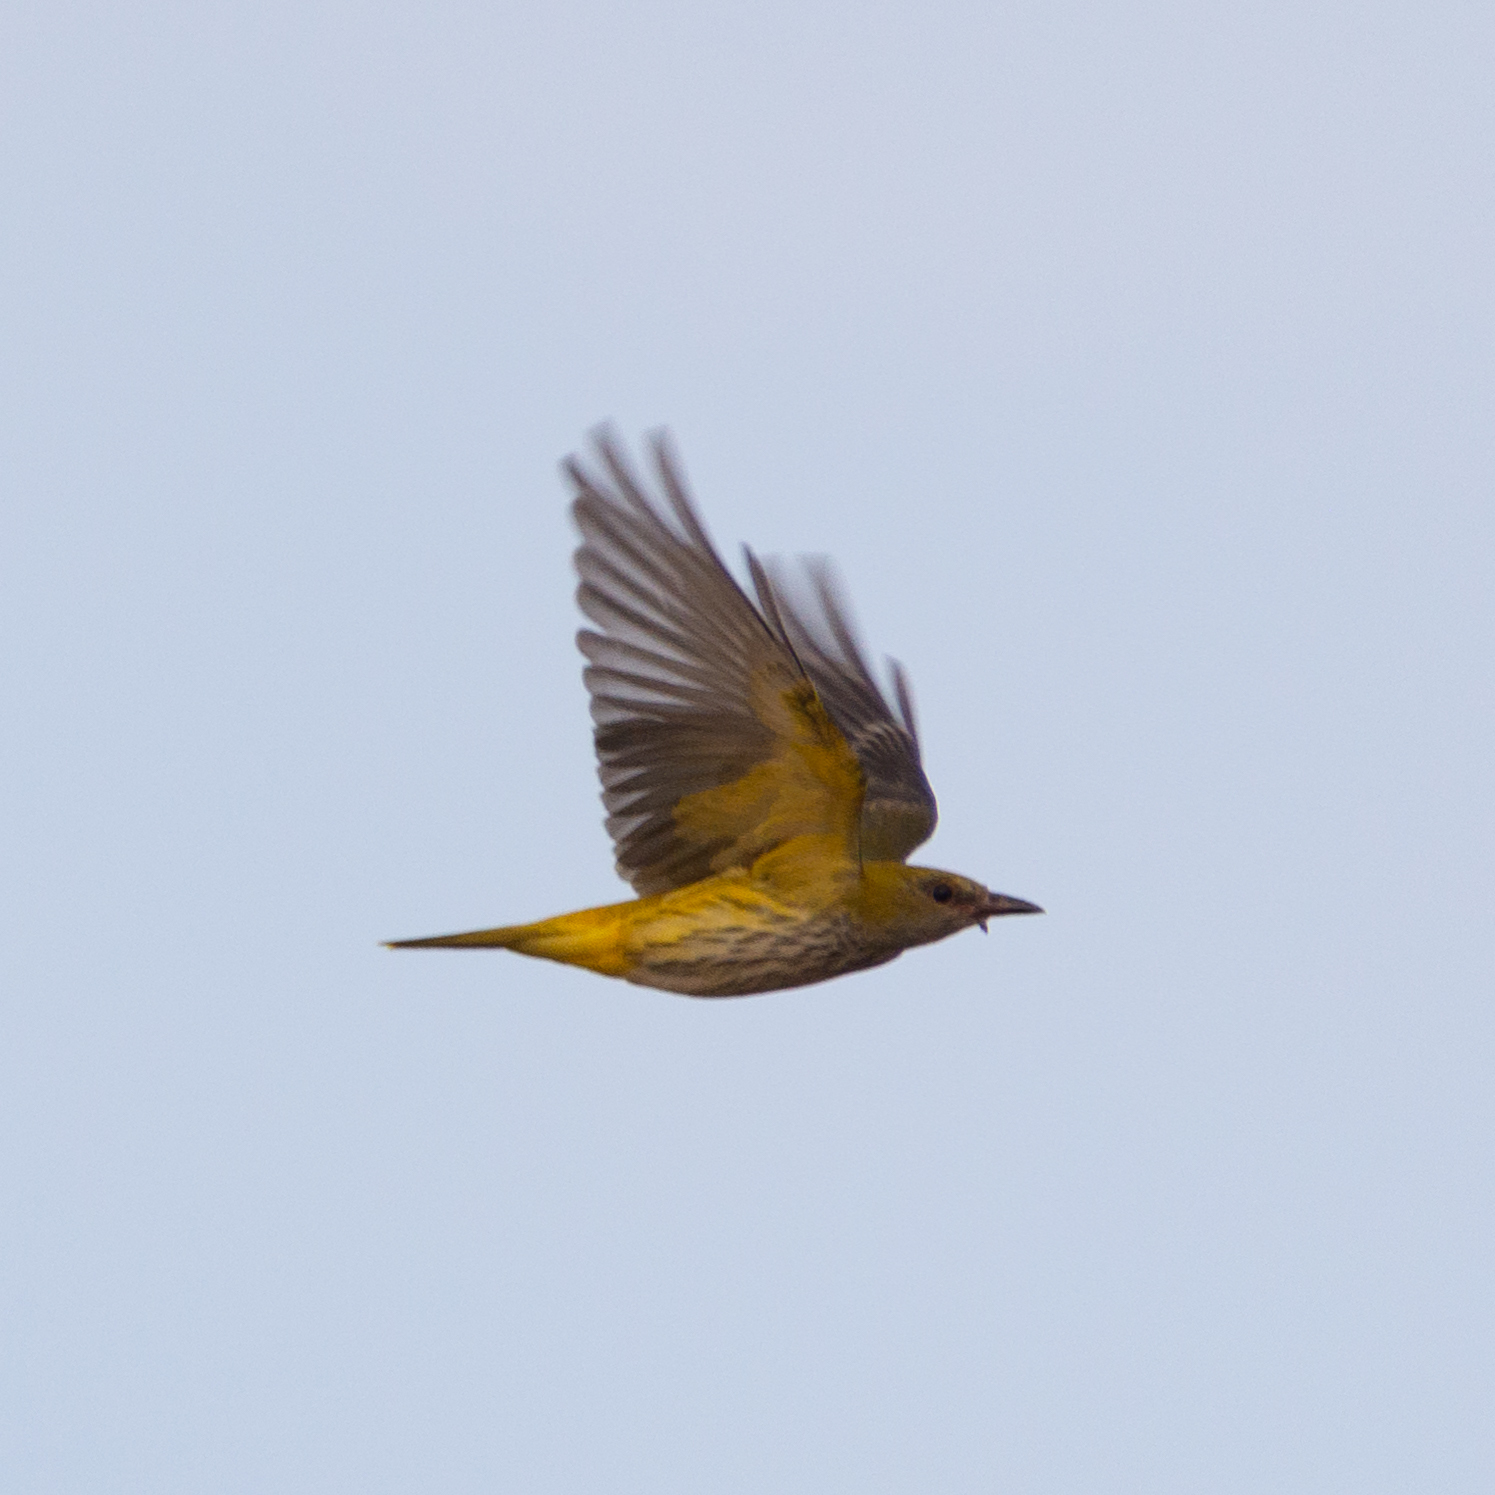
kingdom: Animalia
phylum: Chordata
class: Aves
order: Passeriformes
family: Oriolidae
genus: Oriolus
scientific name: Oriolus oriolus
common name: Eurasian golden oriole
